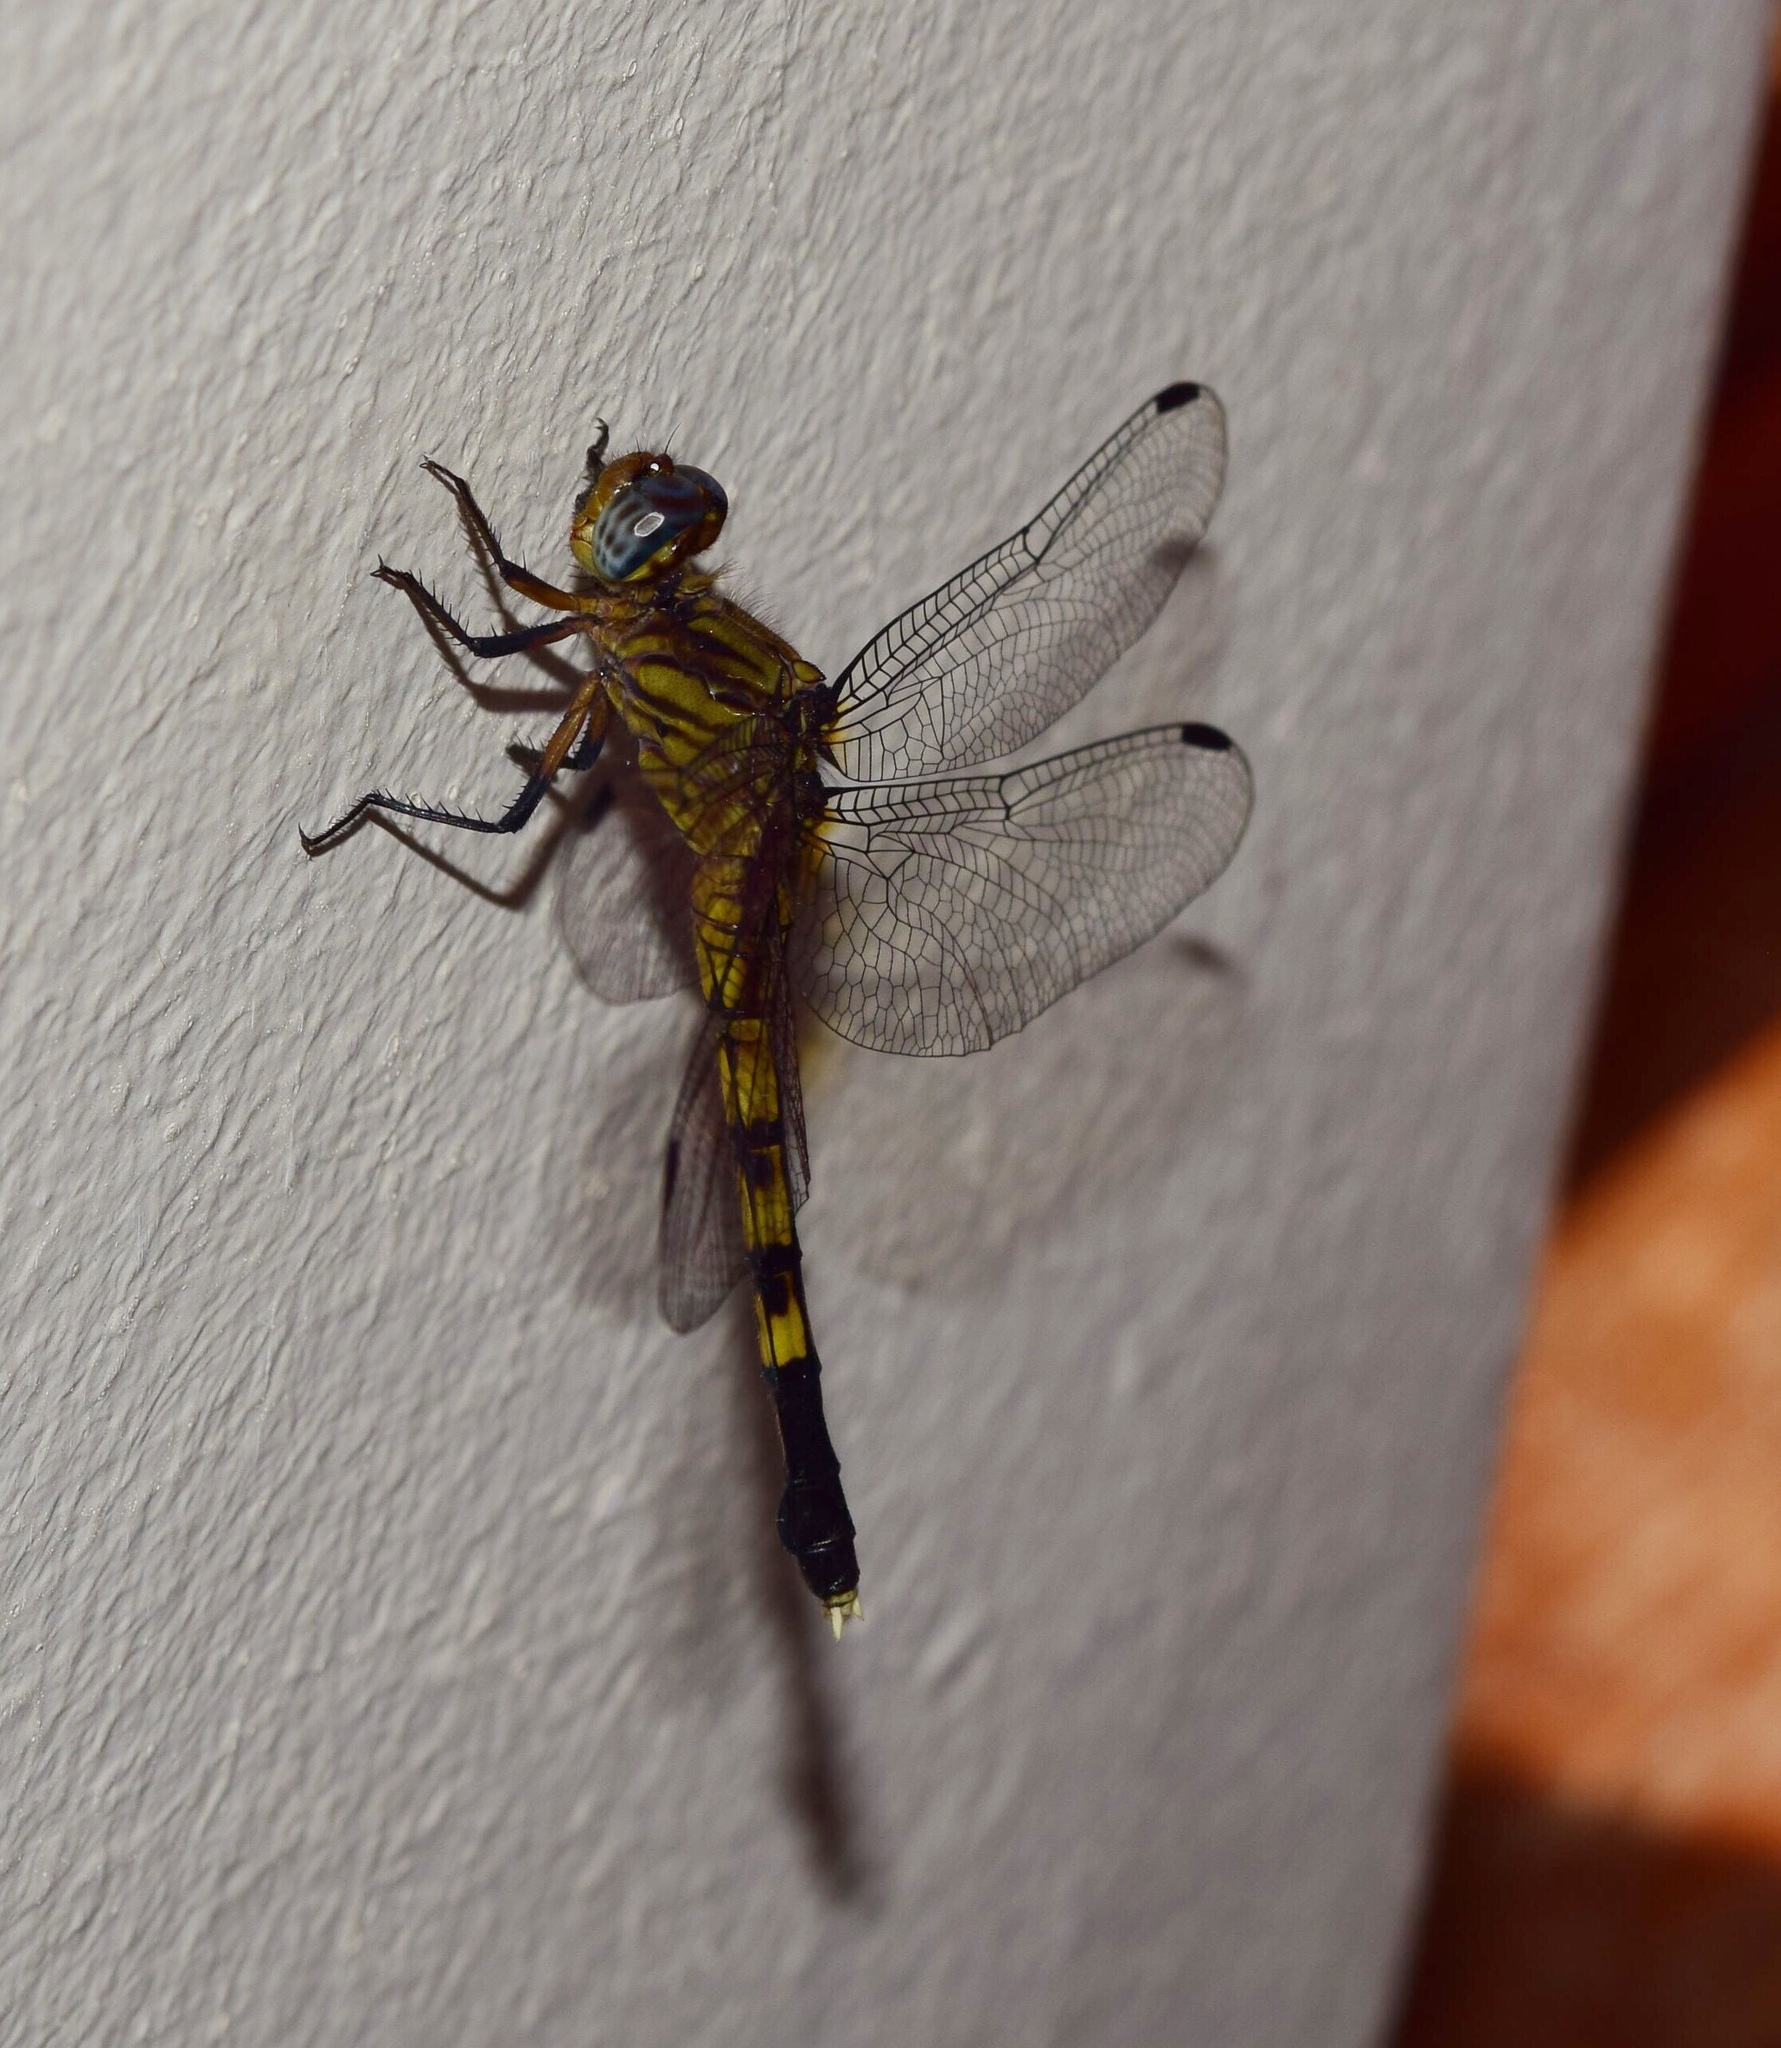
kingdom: Animalia
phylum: Arthropoda
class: Insecta
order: Odonata
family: Libellulidae
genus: Orthetrum
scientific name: Orthetrum julia
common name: Julia skimmer
